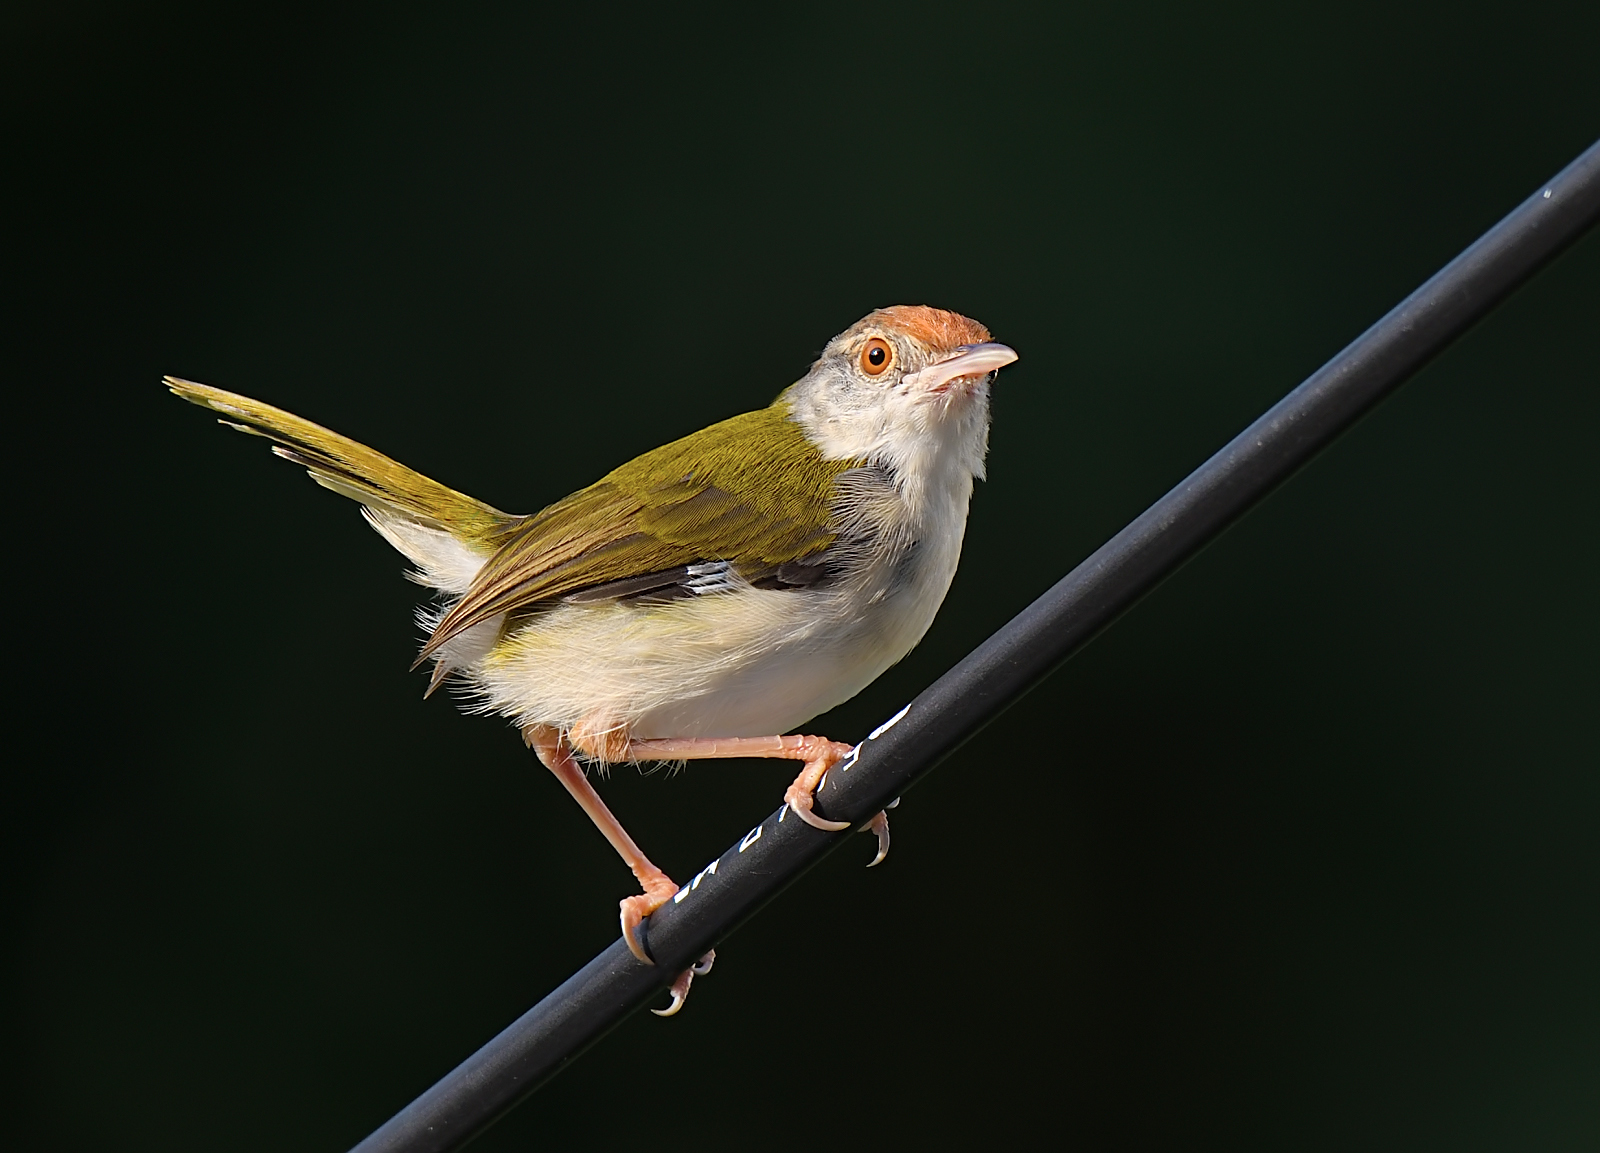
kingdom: Animalia
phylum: Chordata
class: Aves
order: Passeriformes
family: Cisticolidae
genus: Orthotomus
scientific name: Orthotomus sutorius
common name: Common tailorbird
